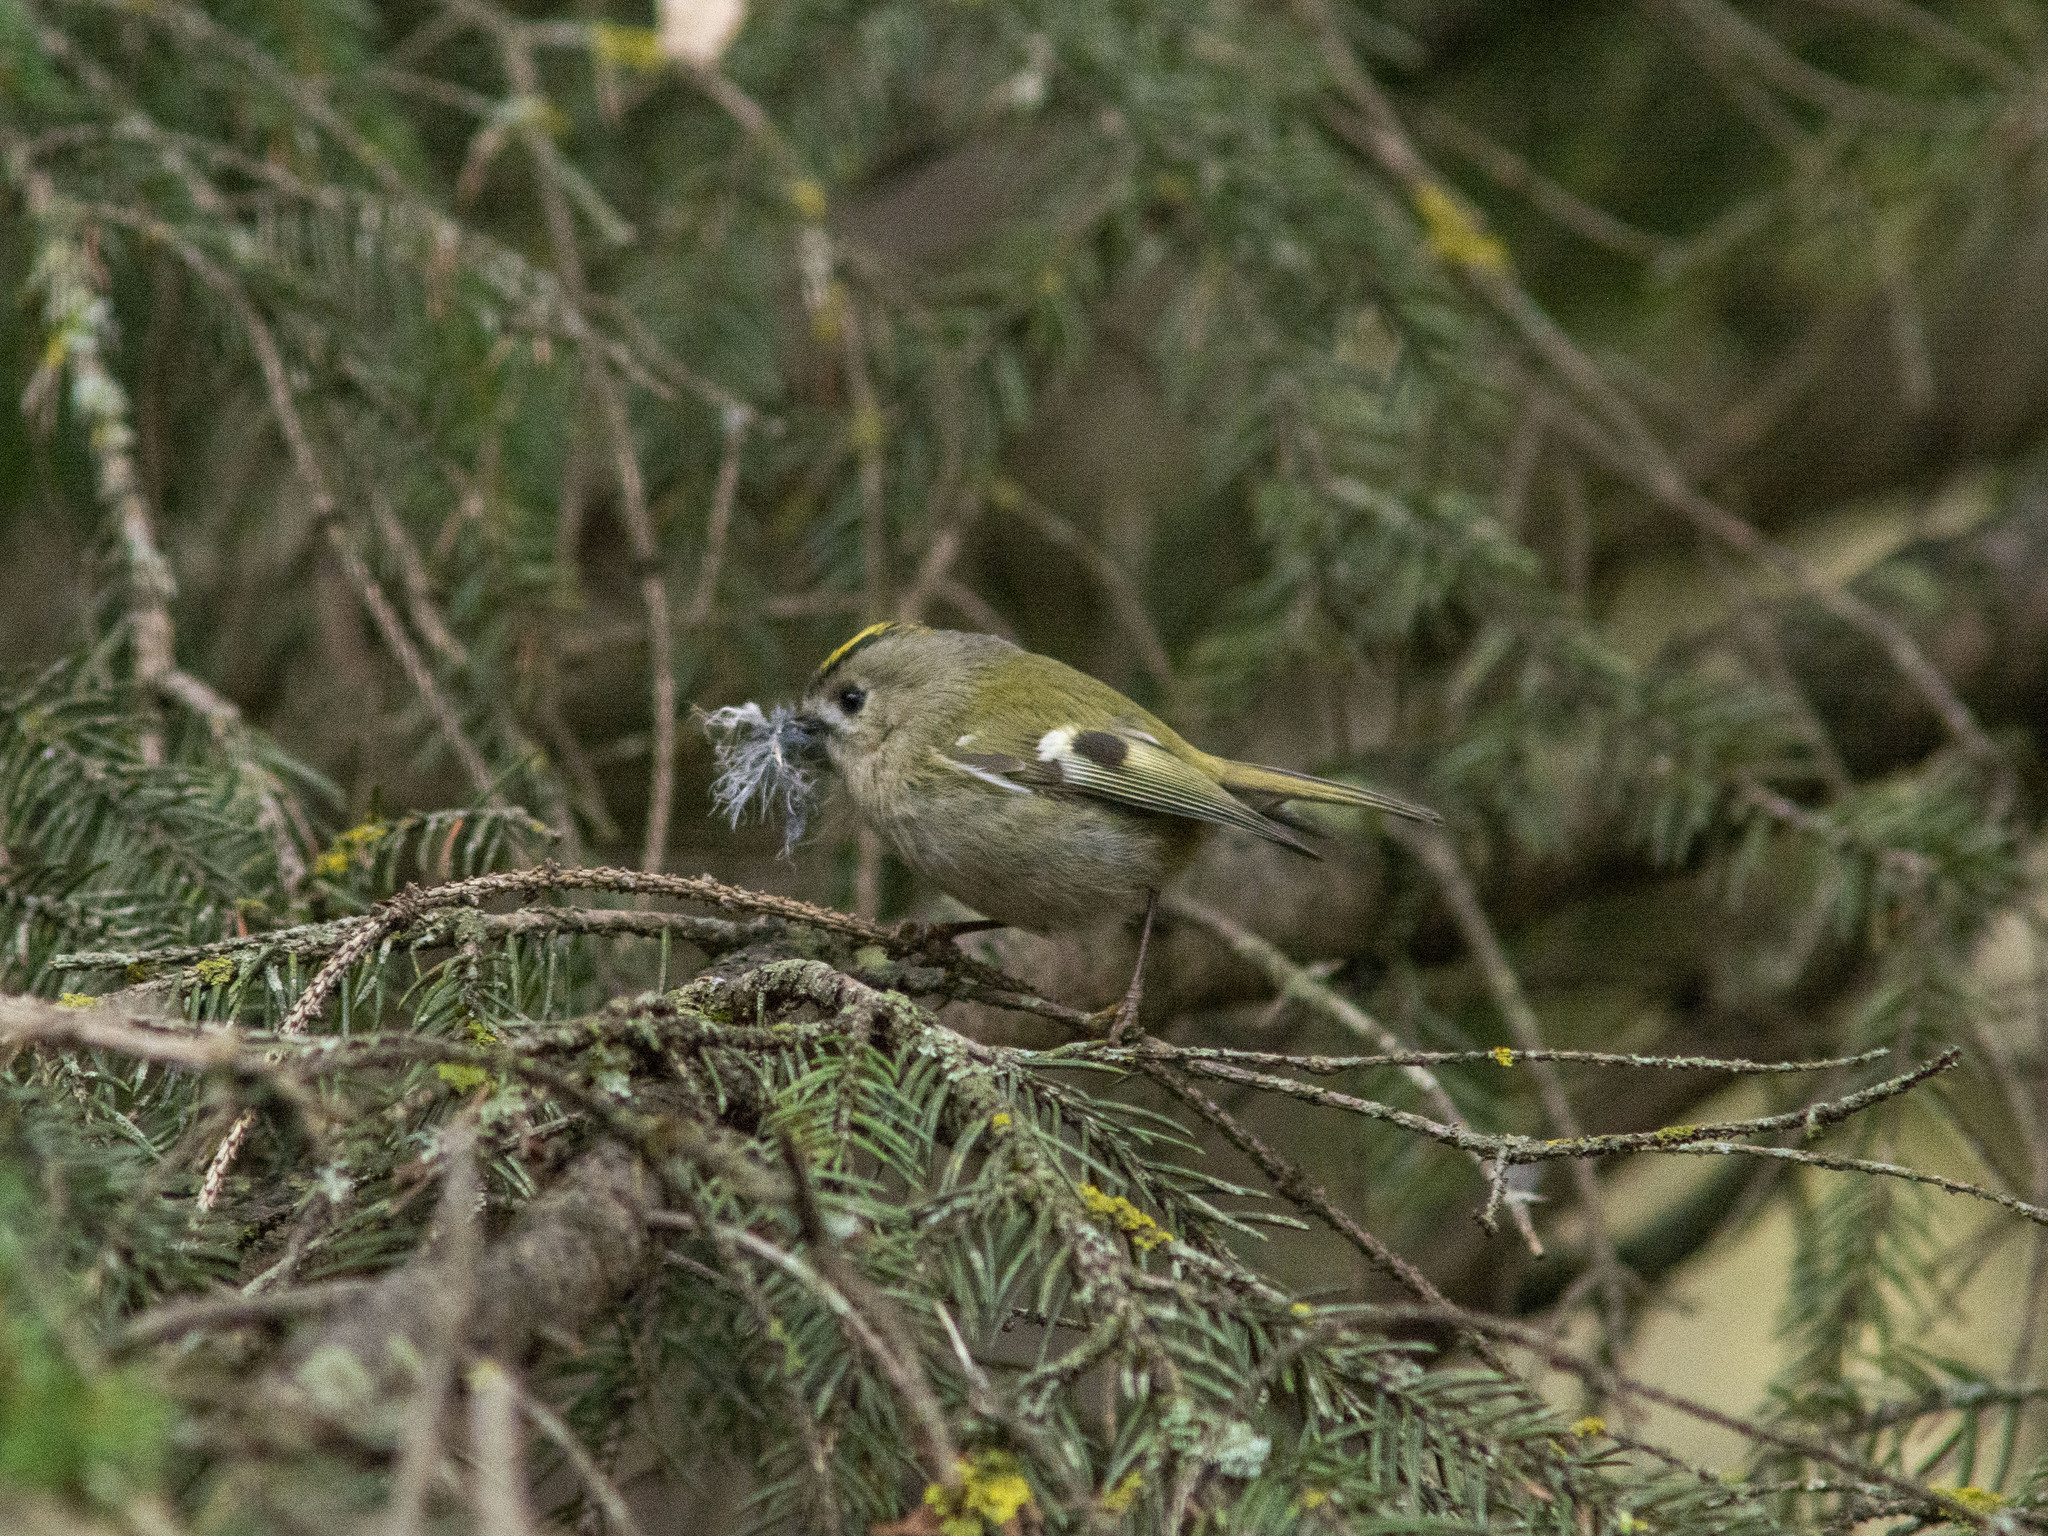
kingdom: Animalia
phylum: Chordata
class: Aves
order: Passeriformes
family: Regulidae
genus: Regulus
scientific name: Regulus regulus
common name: Goldcrest
